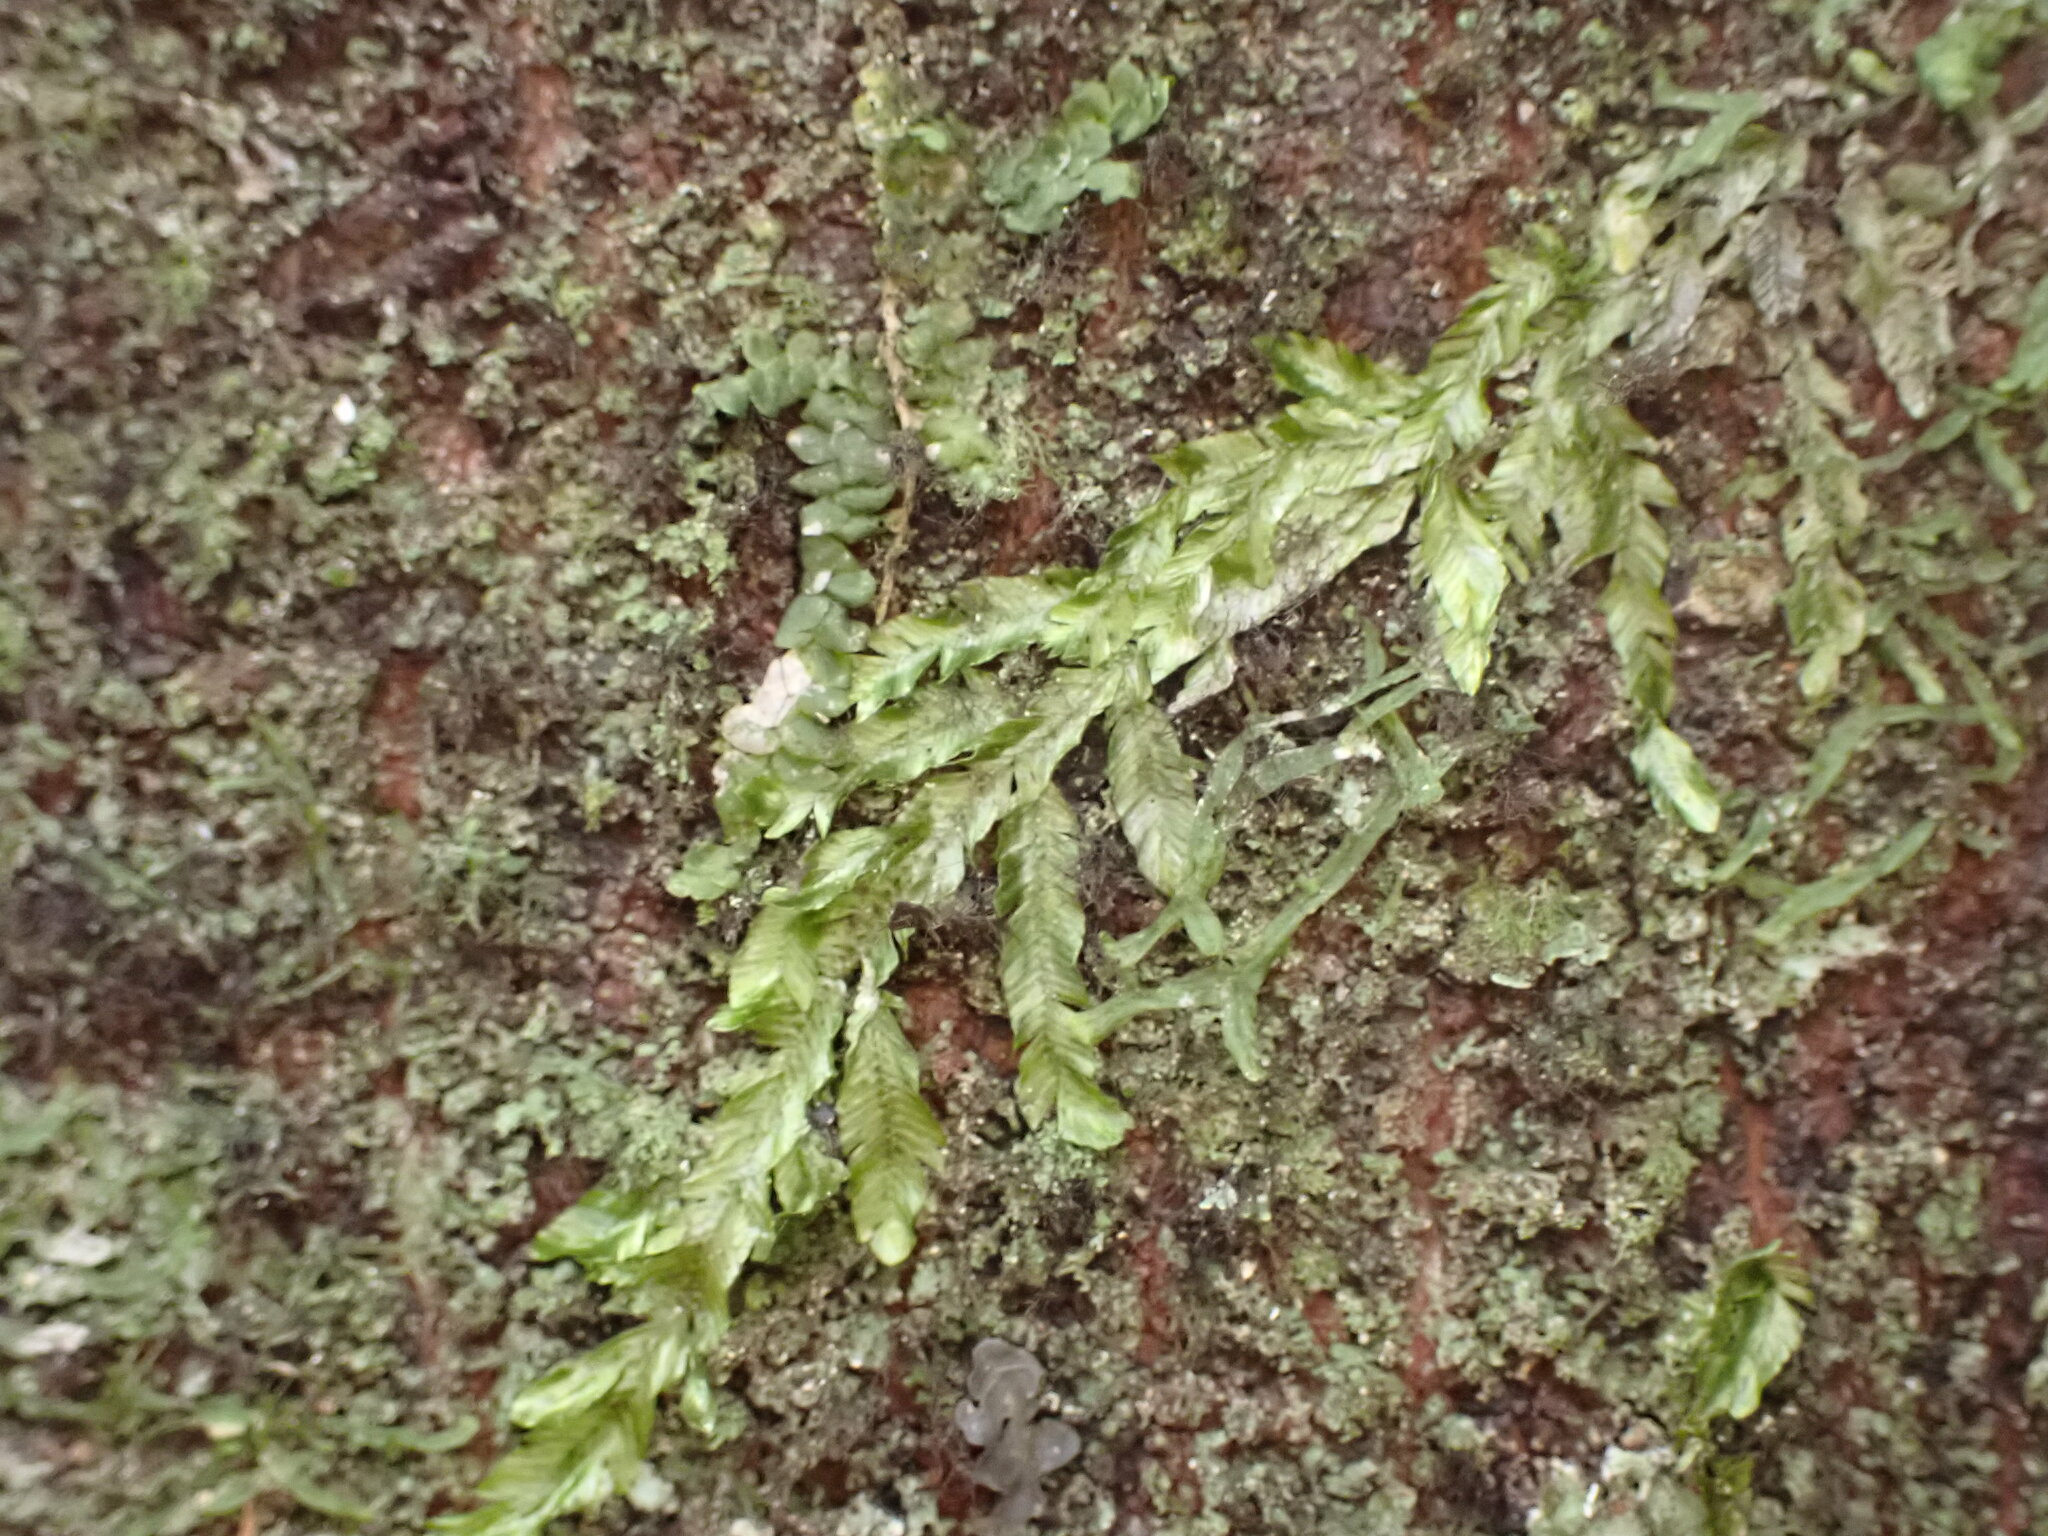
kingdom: Plantae
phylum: Bryophyta
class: Bryopsida
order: Ptychomniales
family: Orthorrhynchiaceae
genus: Orthorrhynchium
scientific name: Orthorrhynchium elegans
